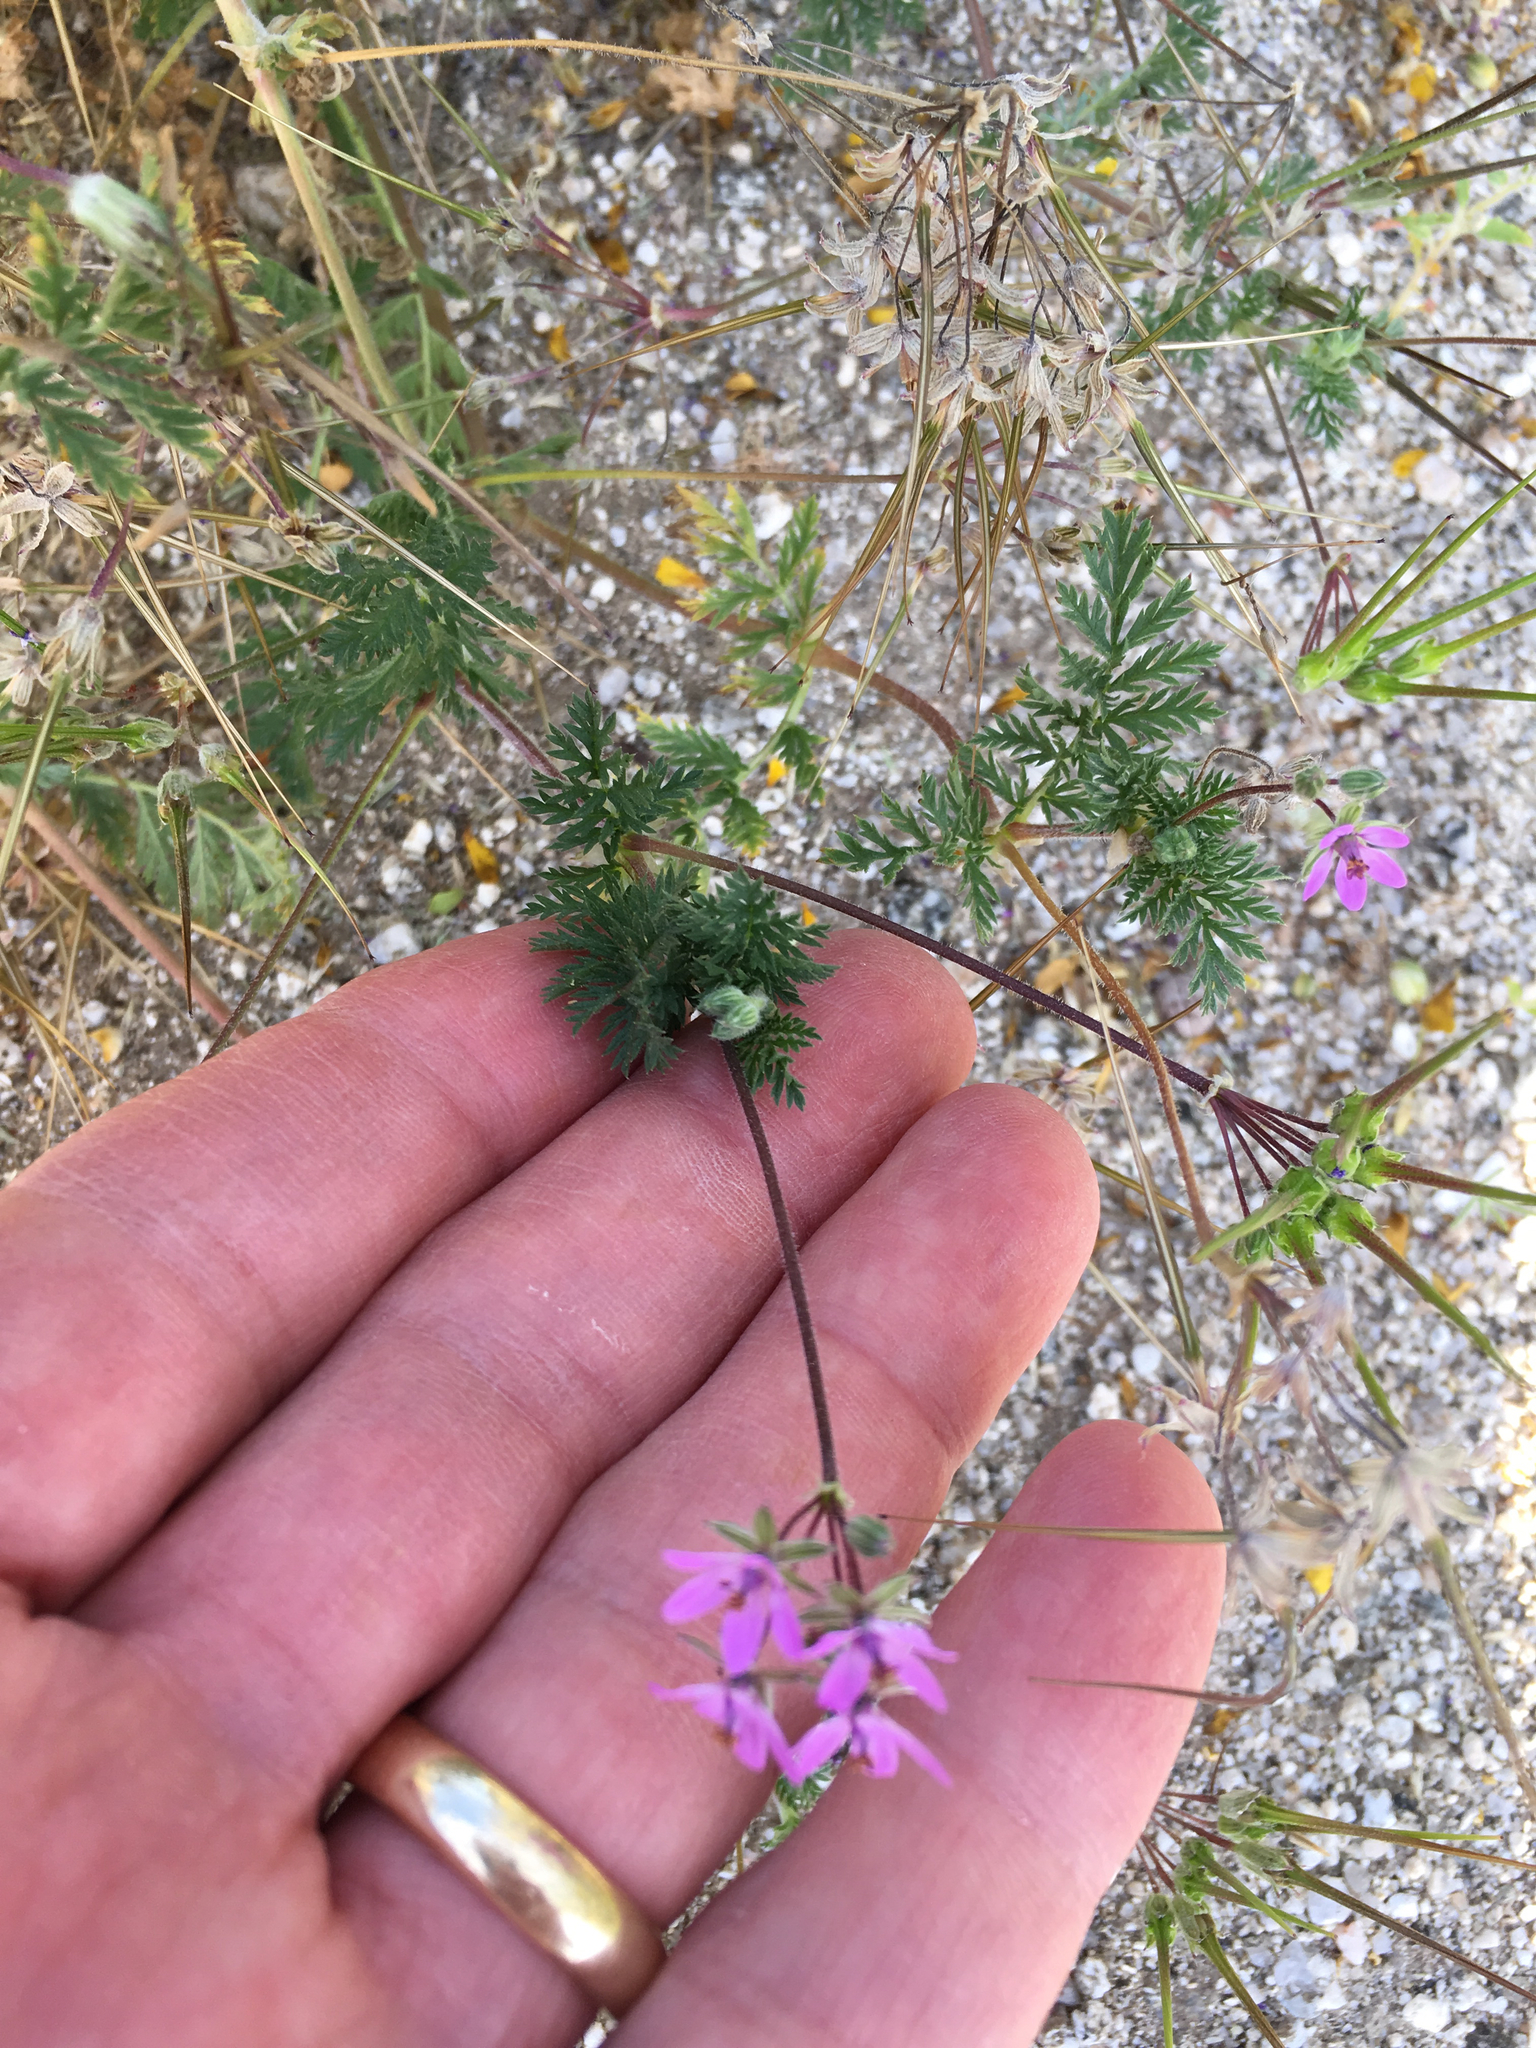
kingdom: Plantae
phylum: Tracheophyta
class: Magnoliopsida
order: Geraniales
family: Geraniaceae
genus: Erodium
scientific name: Erodium cicutarium
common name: Common stork's-bill
